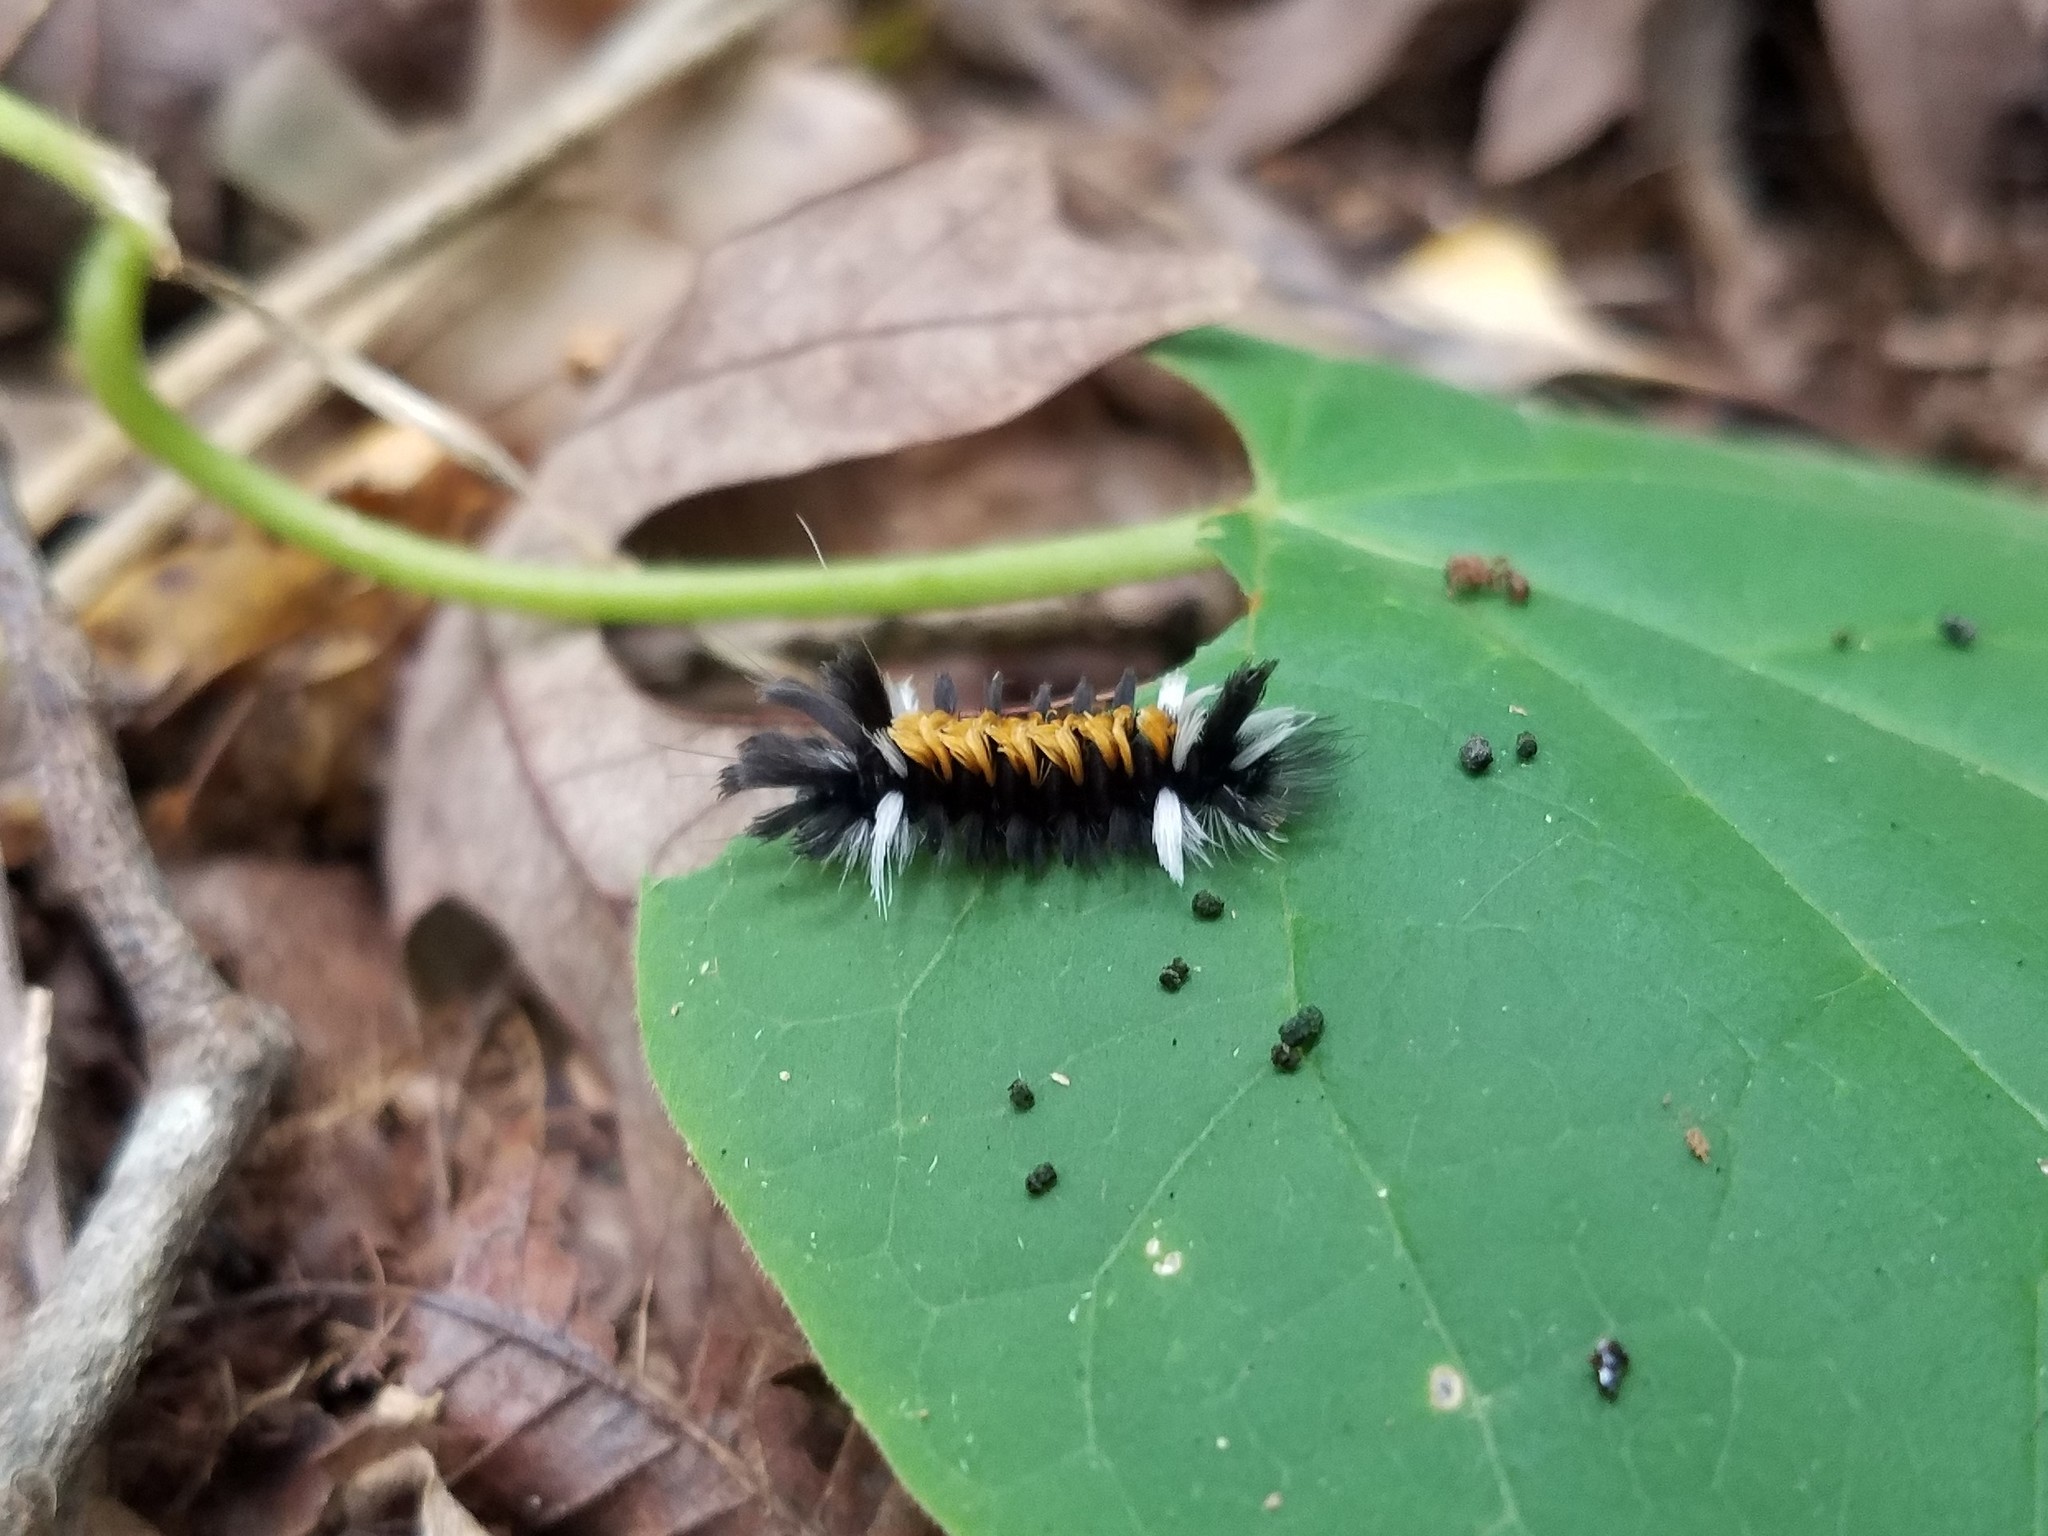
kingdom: Animalia
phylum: Arthropoda
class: Insecta
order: Lepidoptera
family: Erebidae
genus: Euchaetes
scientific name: Euchaetes egle
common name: Milkweed tussock moth
